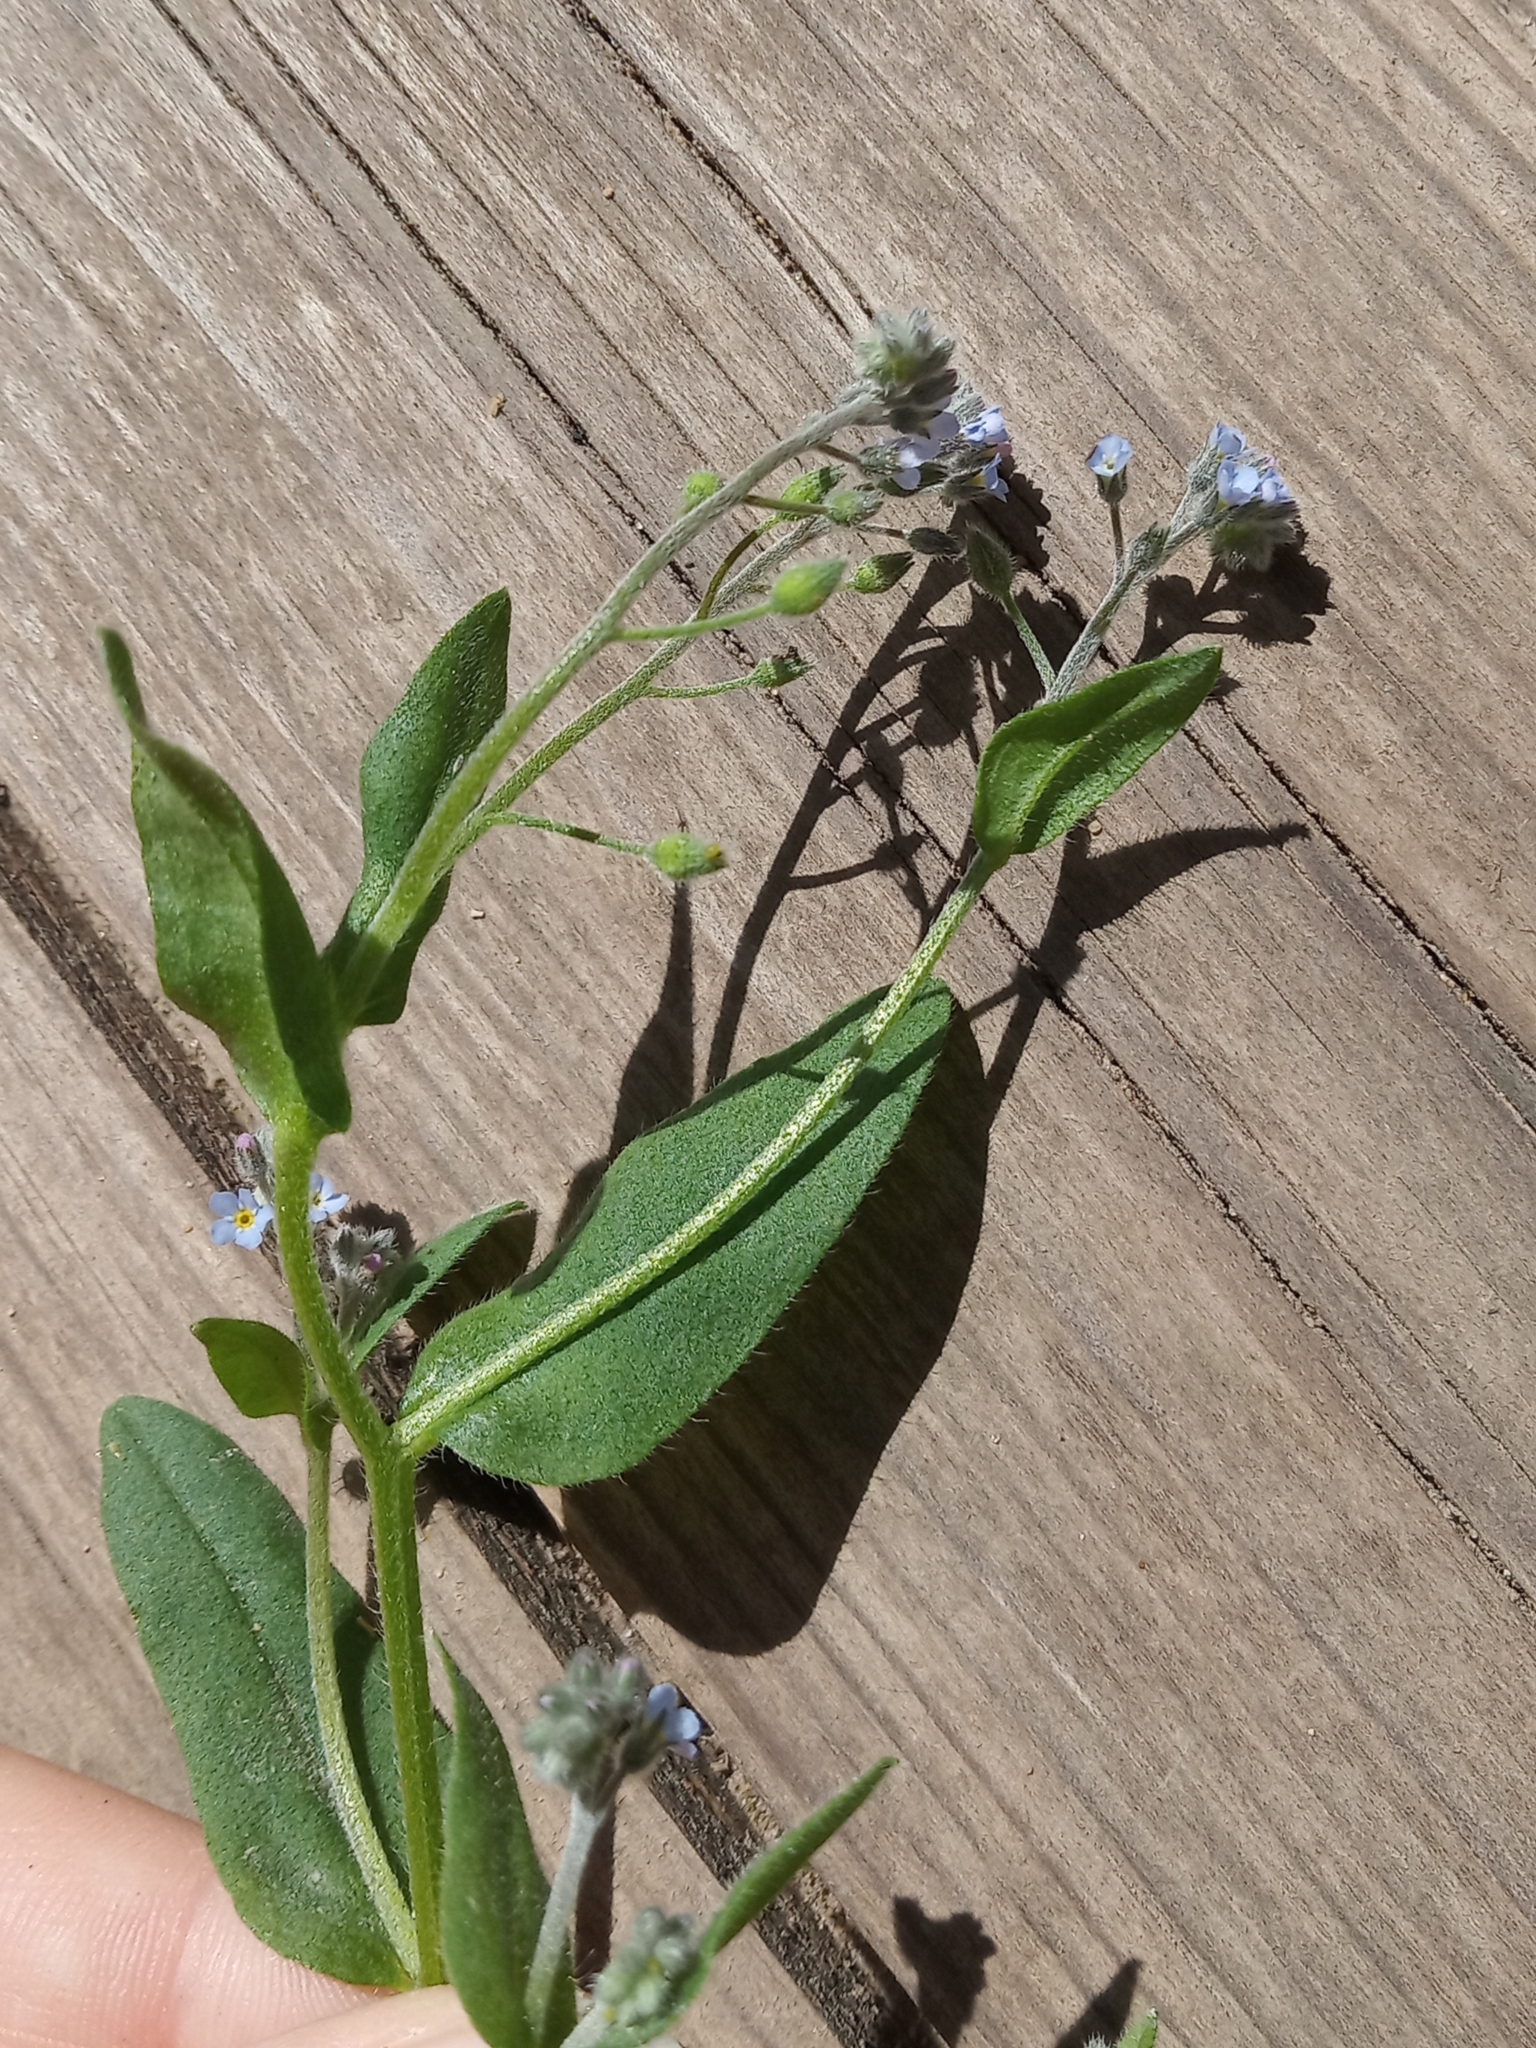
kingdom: Plantae
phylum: Tracheophyta
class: Magnoliopsida
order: Boraginales
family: Boraginaceae
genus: Myosotis
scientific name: Myosotis arvensis
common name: Field forget-me-not
